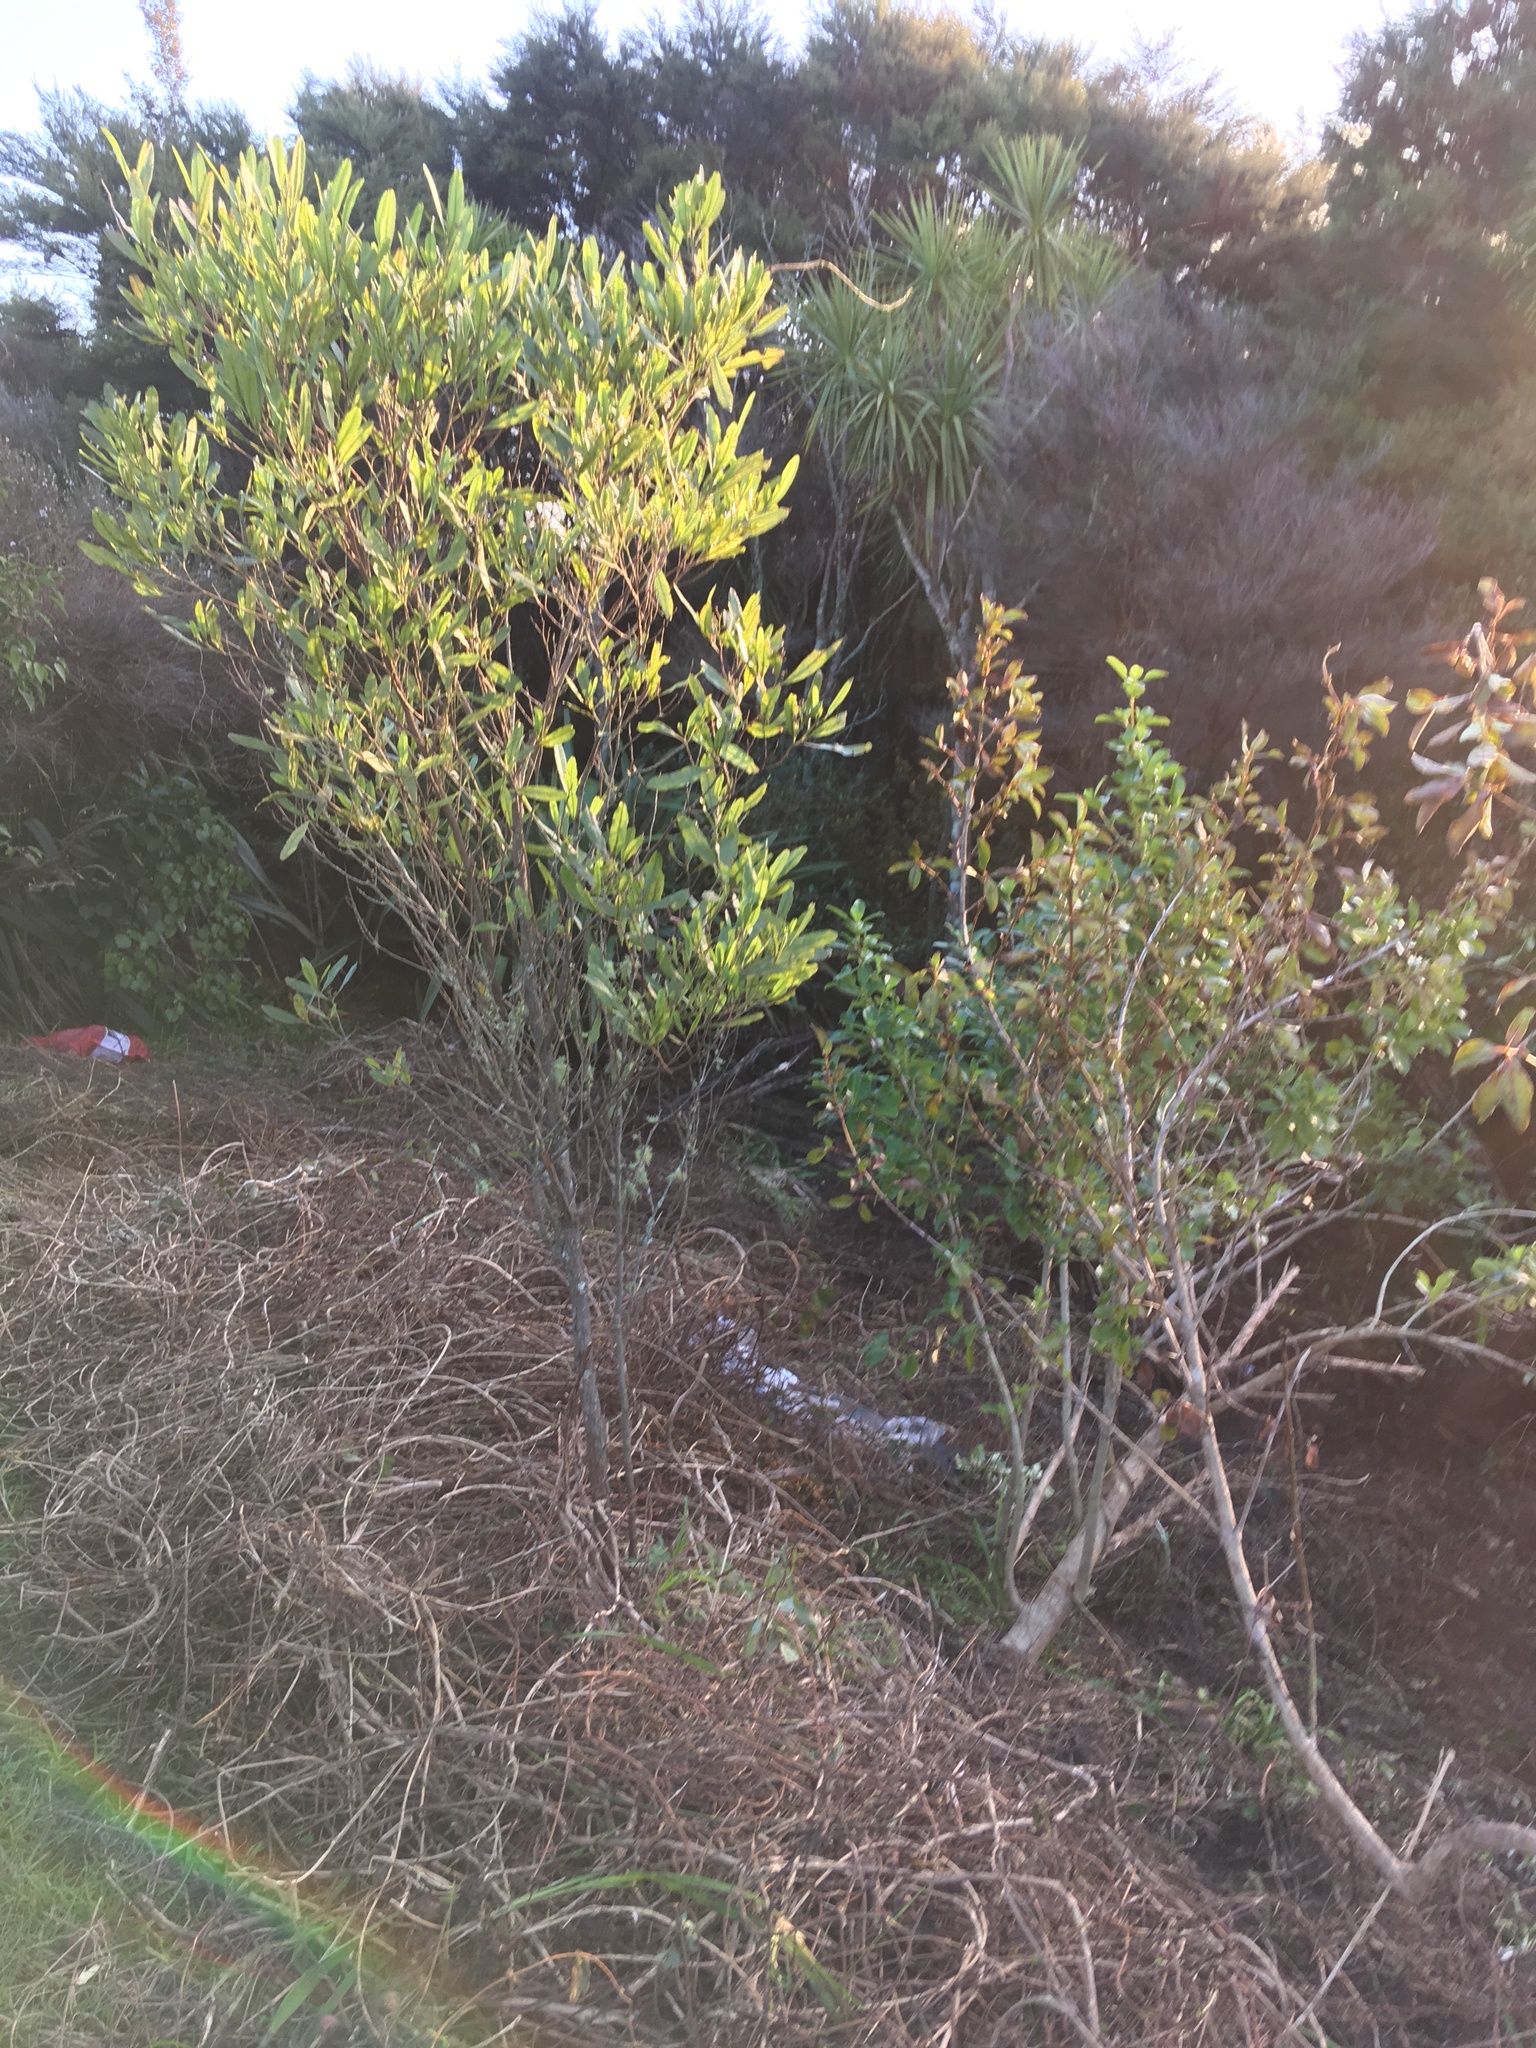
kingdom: Plantae
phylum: Tracheophyta
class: Magnoliopsida
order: Sapindales
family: Sapindaceae
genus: Dodonaea
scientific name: Dodonaea viscosa
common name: Hopbush
